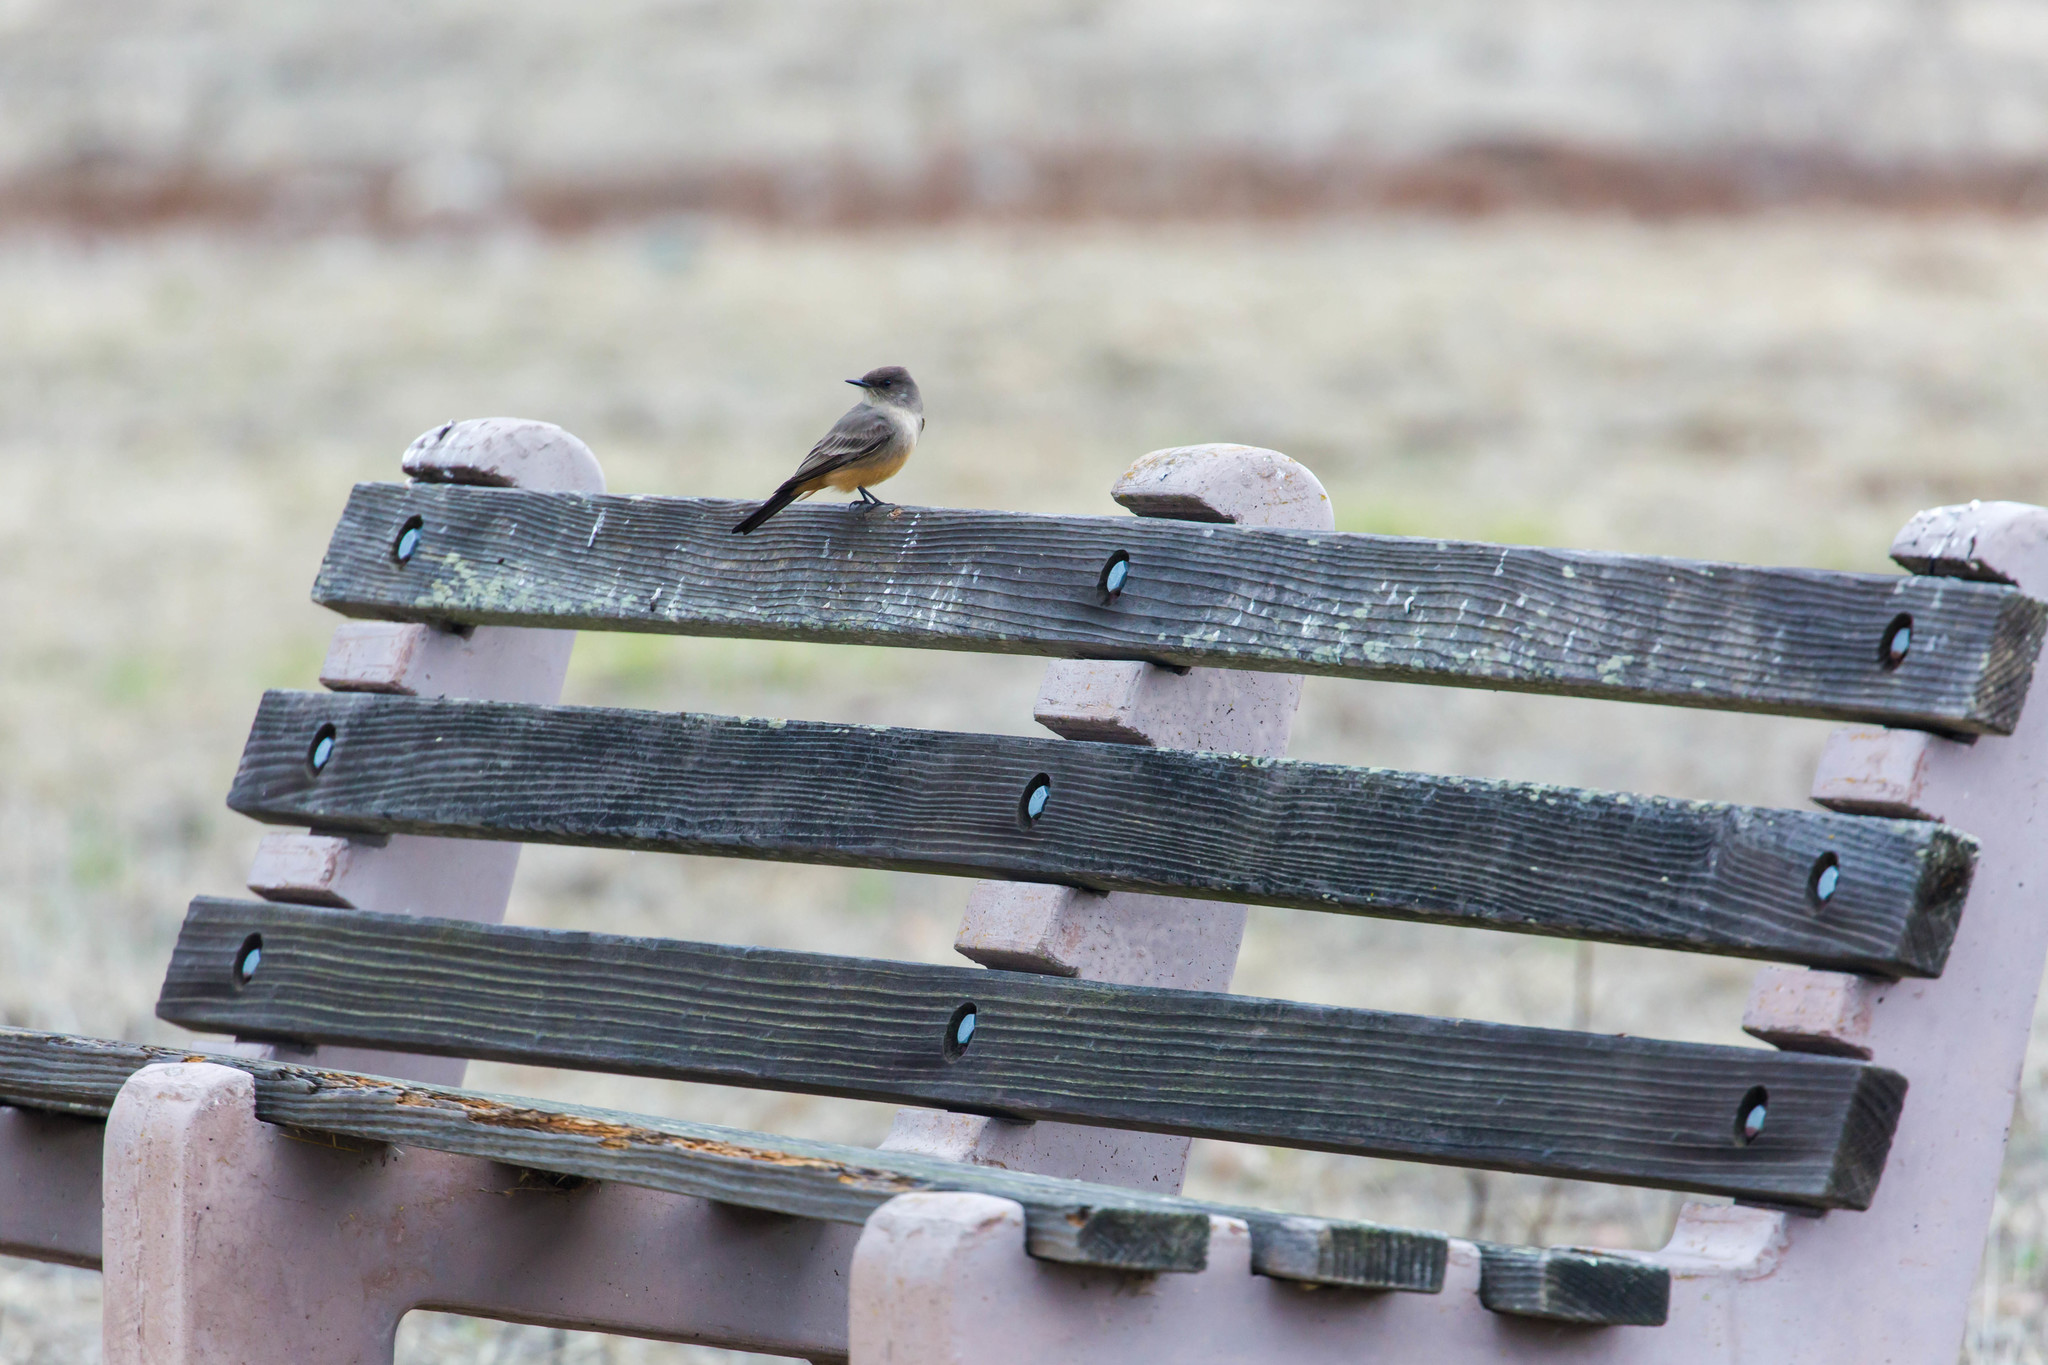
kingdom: Animalia
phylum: Chordata
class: Aves
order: Passeriformes
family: Tyrannidae
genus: Sayornis
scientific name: Sayornis saya
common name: Say's phoebe
